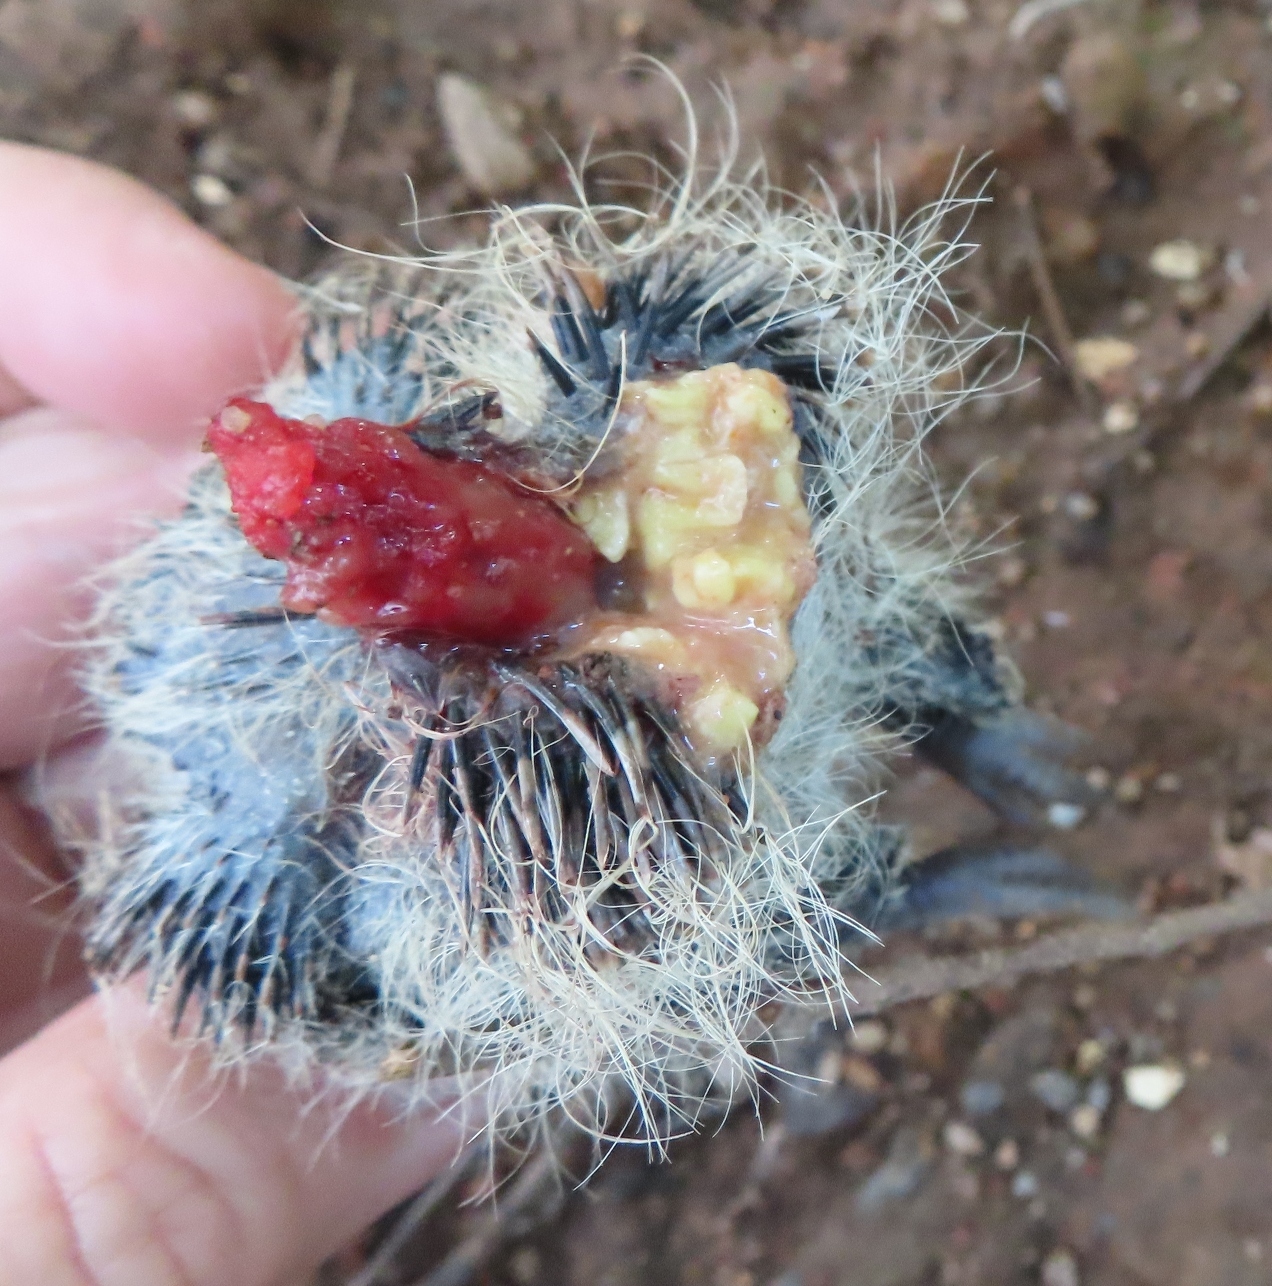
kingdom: Animalia
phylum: Chordata
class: Aves
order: Columbiformes
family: Columbidae
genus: Streptopelia
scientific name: Streptopelia semitorquata
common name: Red-eyed dove
